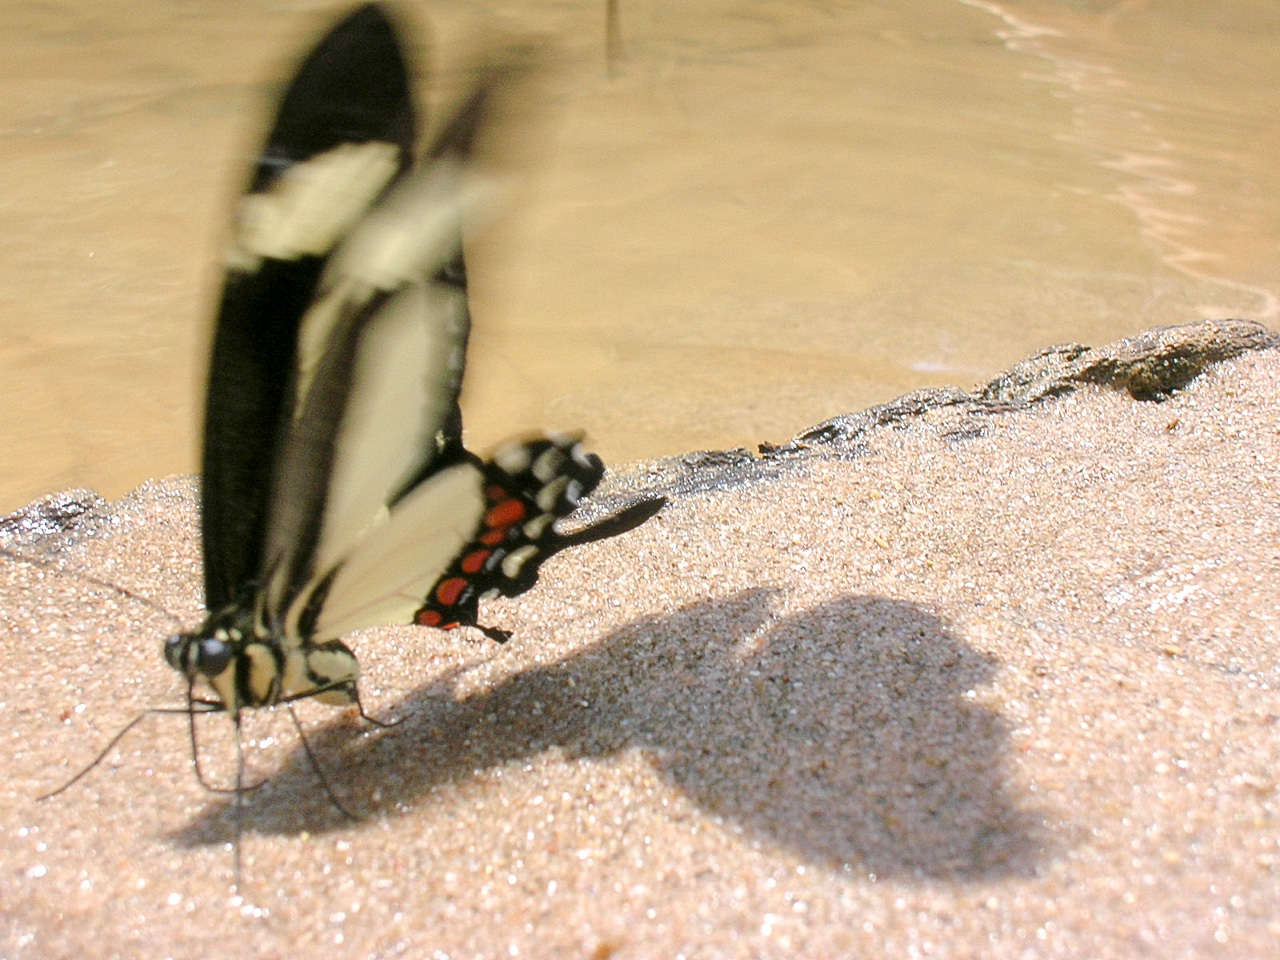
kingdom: Animalia
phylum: Arthropoda
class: Insecta
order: Lepidoptera
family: Papilionidae
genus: Papilio
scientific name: Papilio torquatus
